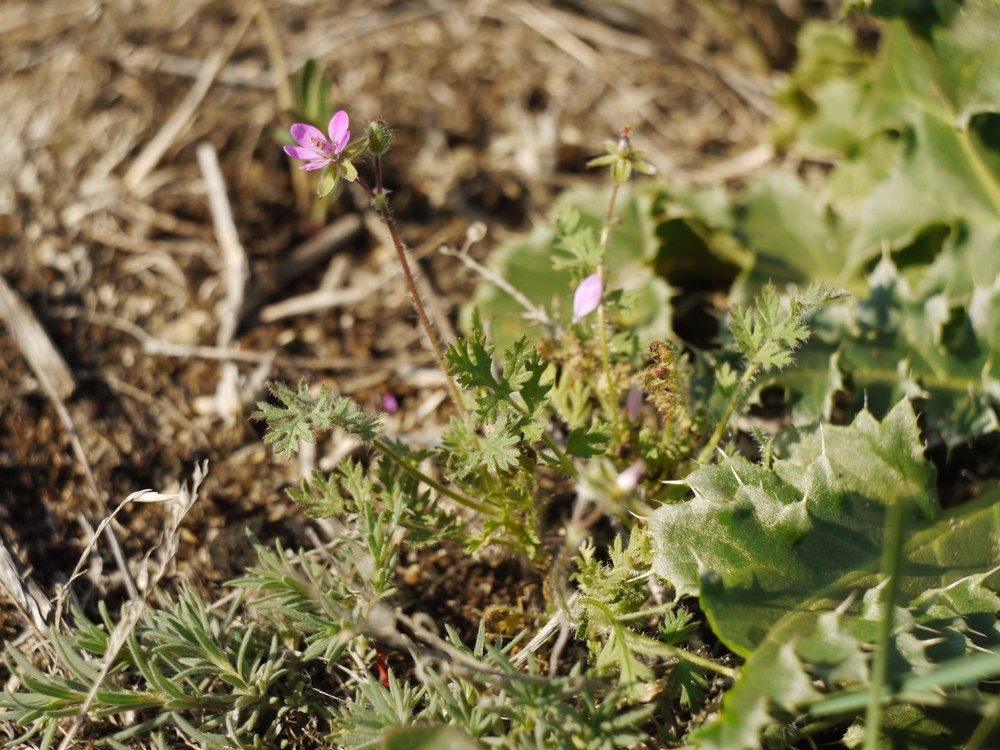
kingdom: Plantae
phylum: Tracheophyta
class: Magnoliopsida
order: Geraniales
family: Geraniaceae
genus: Erodium
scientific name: Erodium cicutarium
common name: Common stork's-bill
